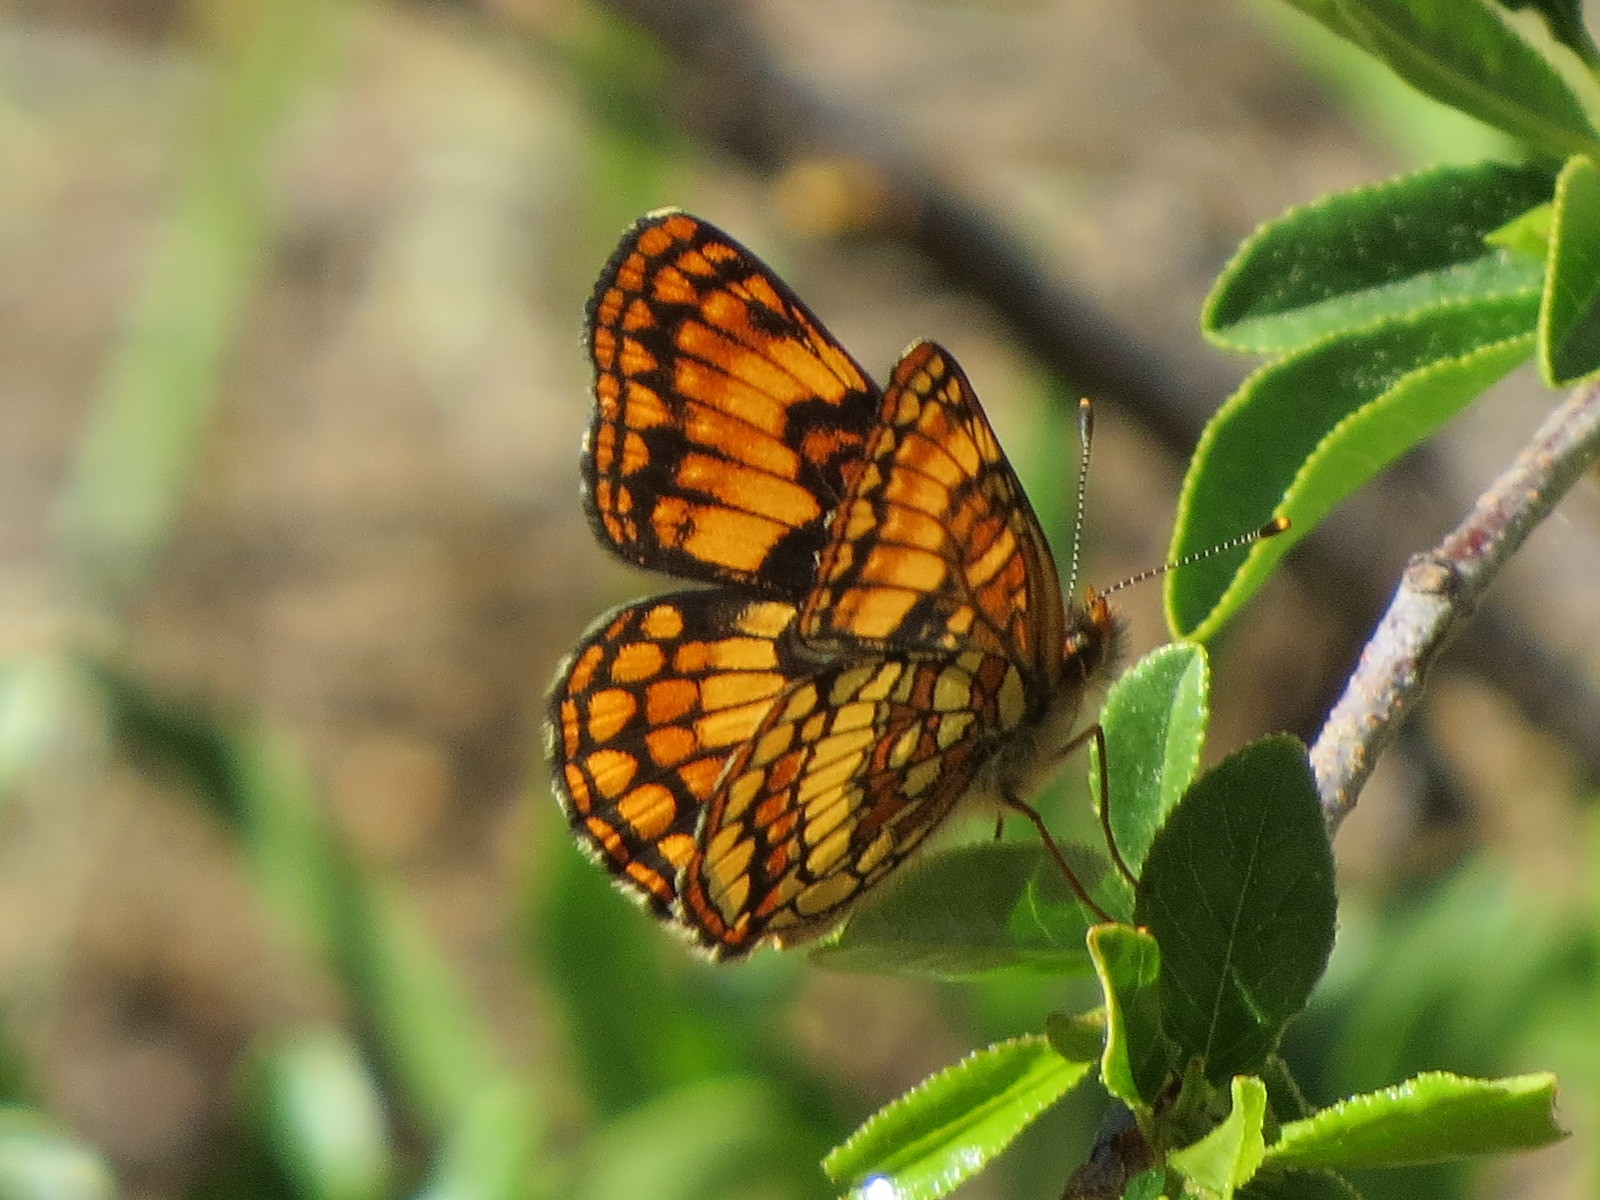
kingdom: Animalia
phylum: Arthropoda
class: Insecta
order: Lepidoptera
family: Nymphalidae
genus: Chlosyne
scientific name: Chlosyne hoffmanni
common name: Hoffmann's checkerspot
